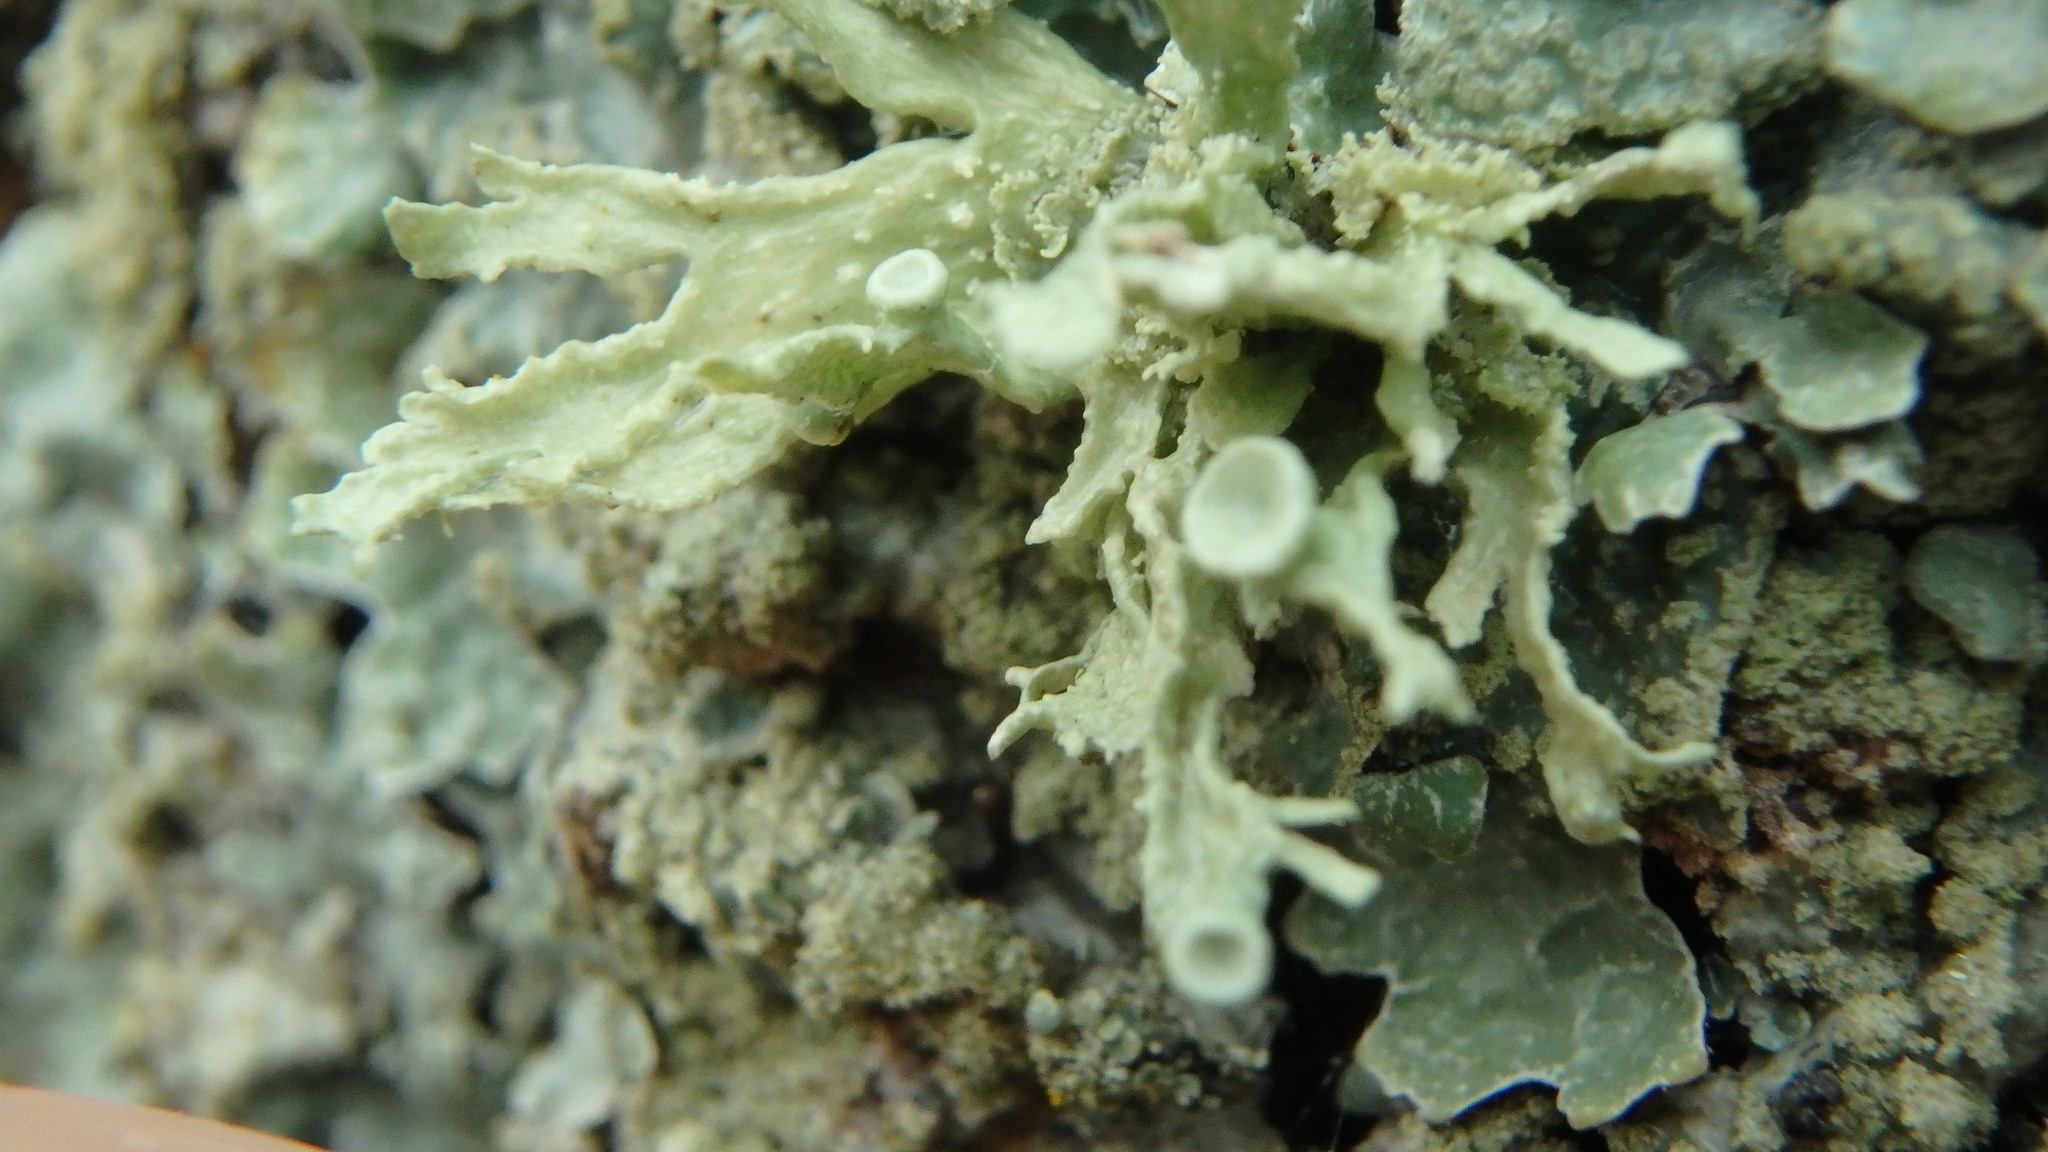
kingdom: Fungi
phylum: Ascomycota
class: Lecanoromycetes
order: Lecanorales
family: Ramalinaceae
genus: Ramalina
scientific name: Ramalina americana
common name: Sinewed bush lichen
